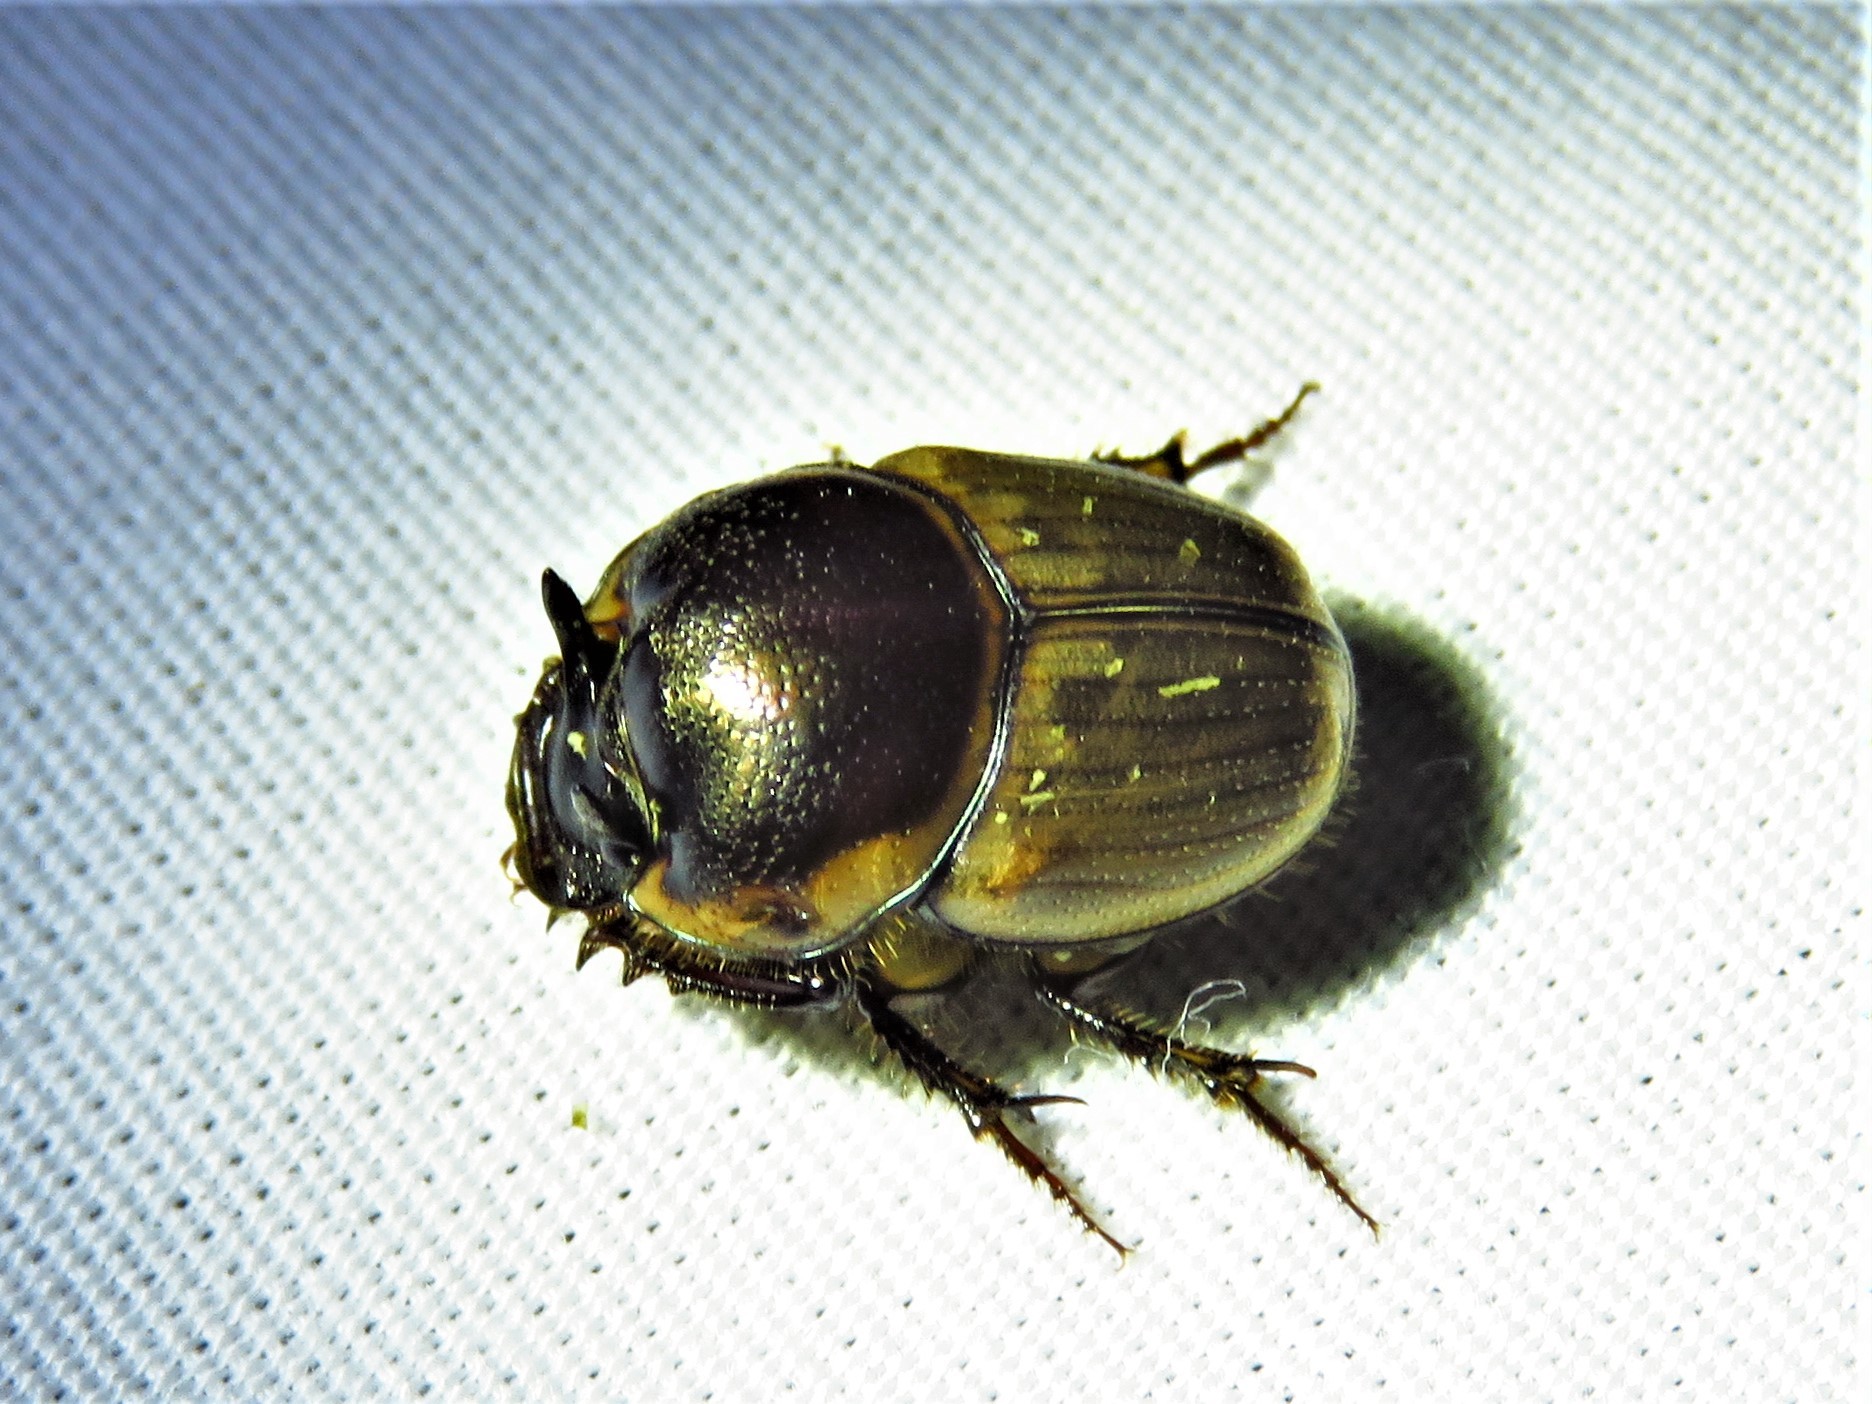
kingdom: Animalia
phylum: Arthropoda
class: Insecta
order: Coleoptera
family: Scarabaeidae
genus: Digitonthophagus
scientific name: Digitonthophagus gazella
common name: Brown dung beetle
